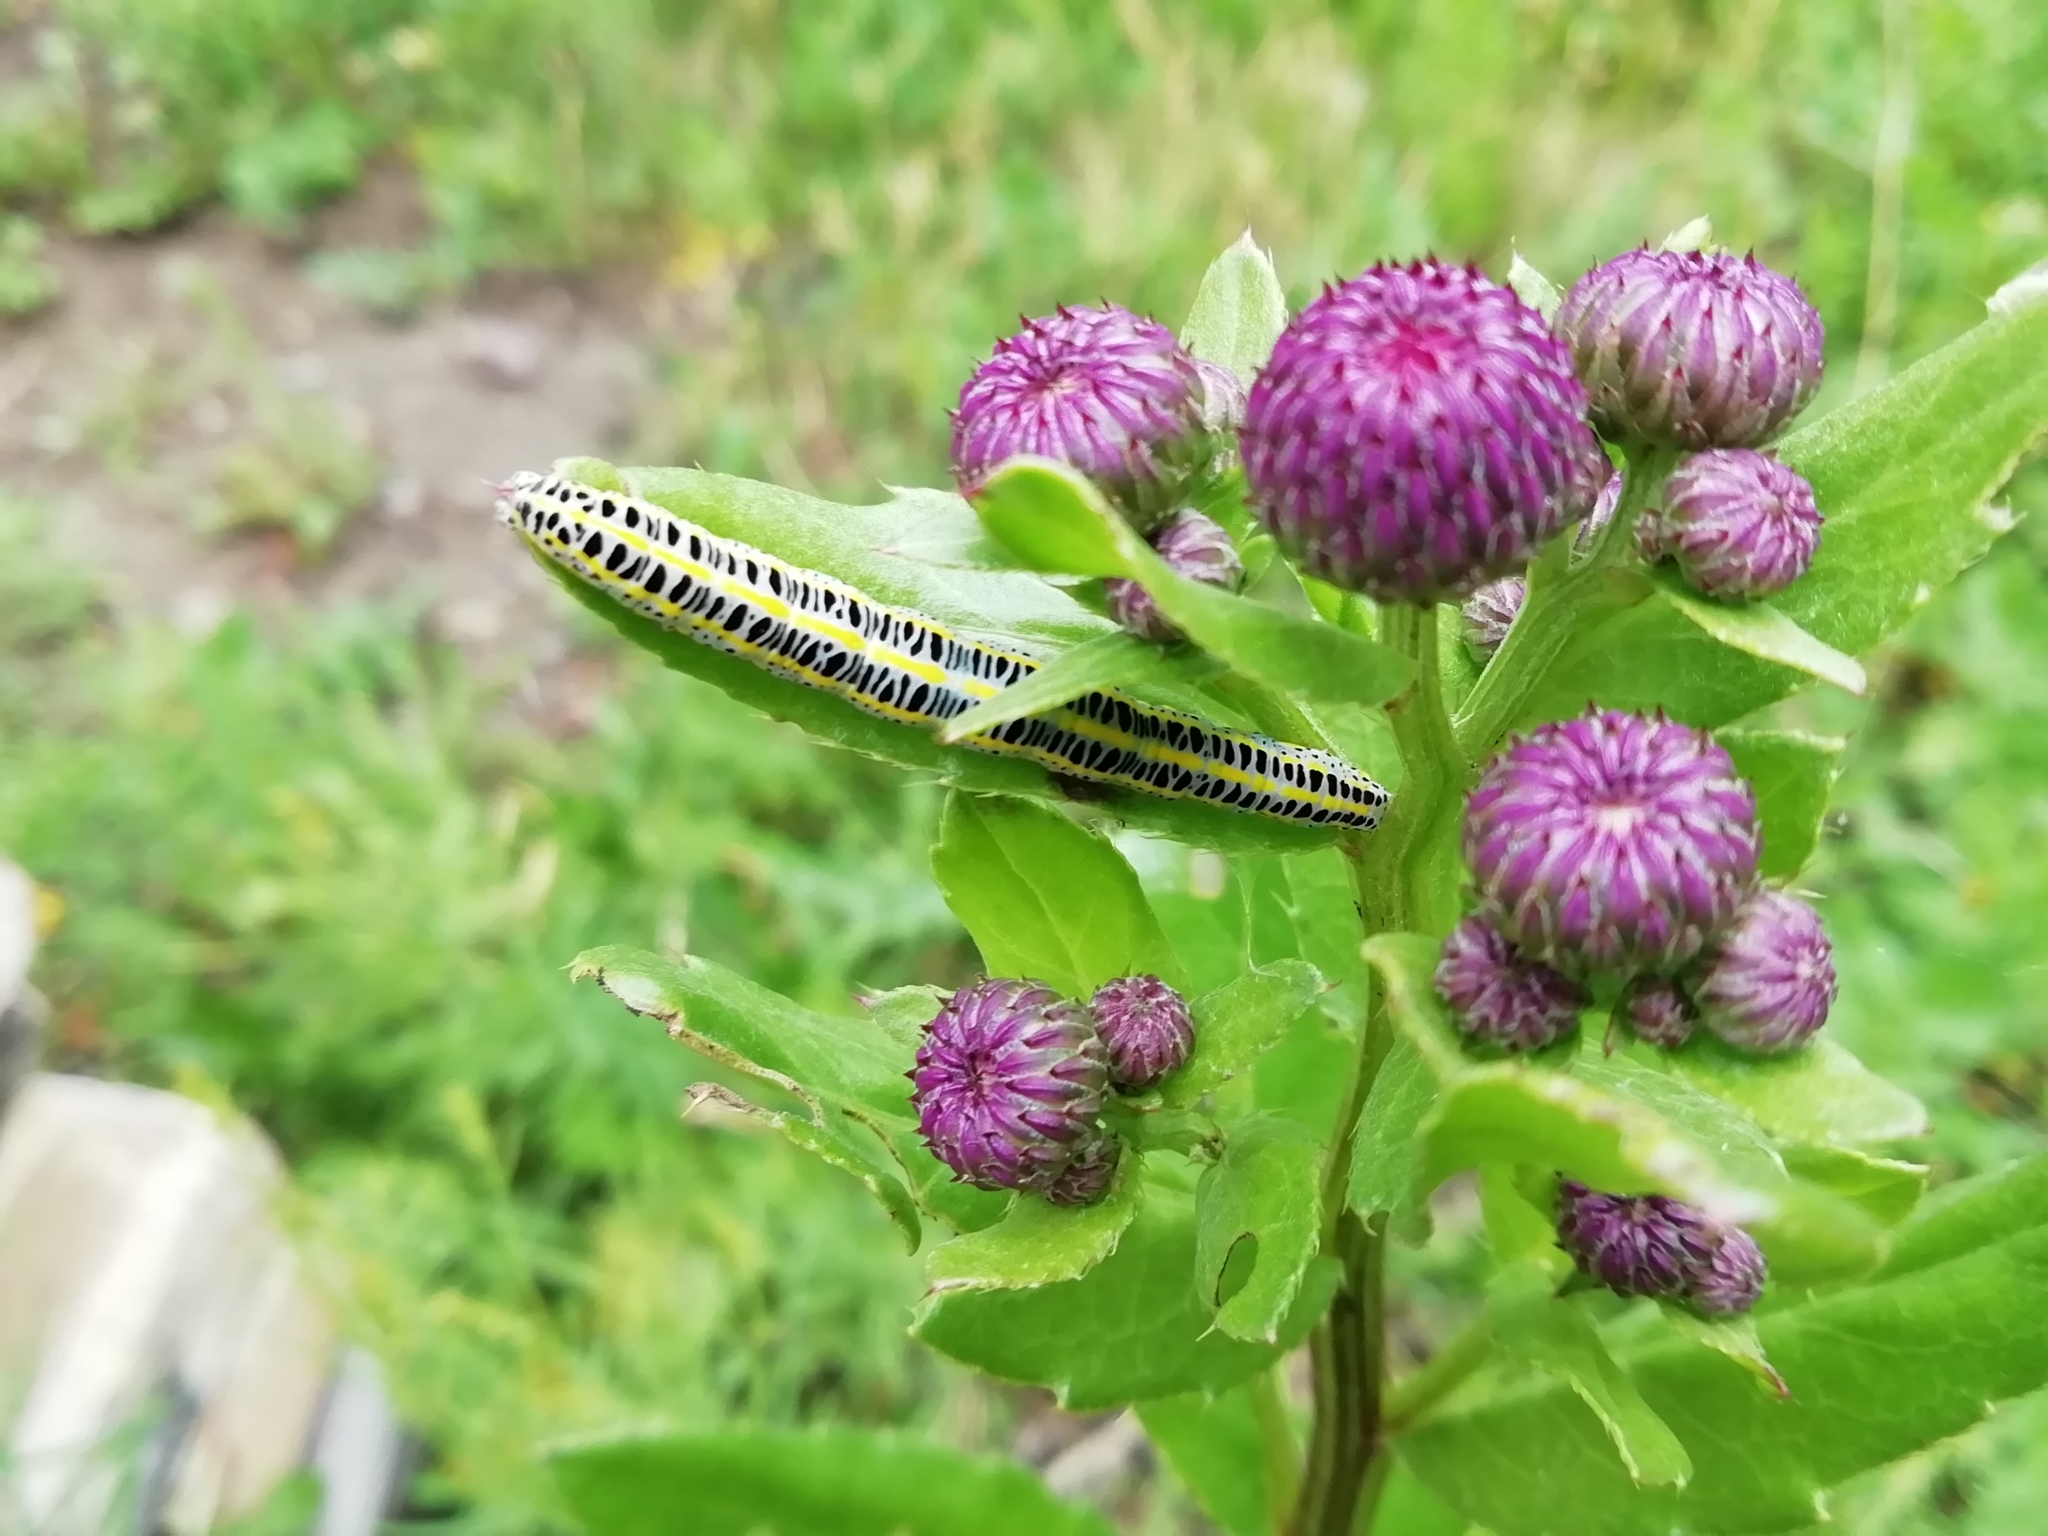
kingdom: Animalia
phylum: Arthropoda
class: Insecta
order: Lepidoptera
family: Noctuidae
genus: Calophasia
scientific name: Calophasia lunula
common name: Toadflax brocade
